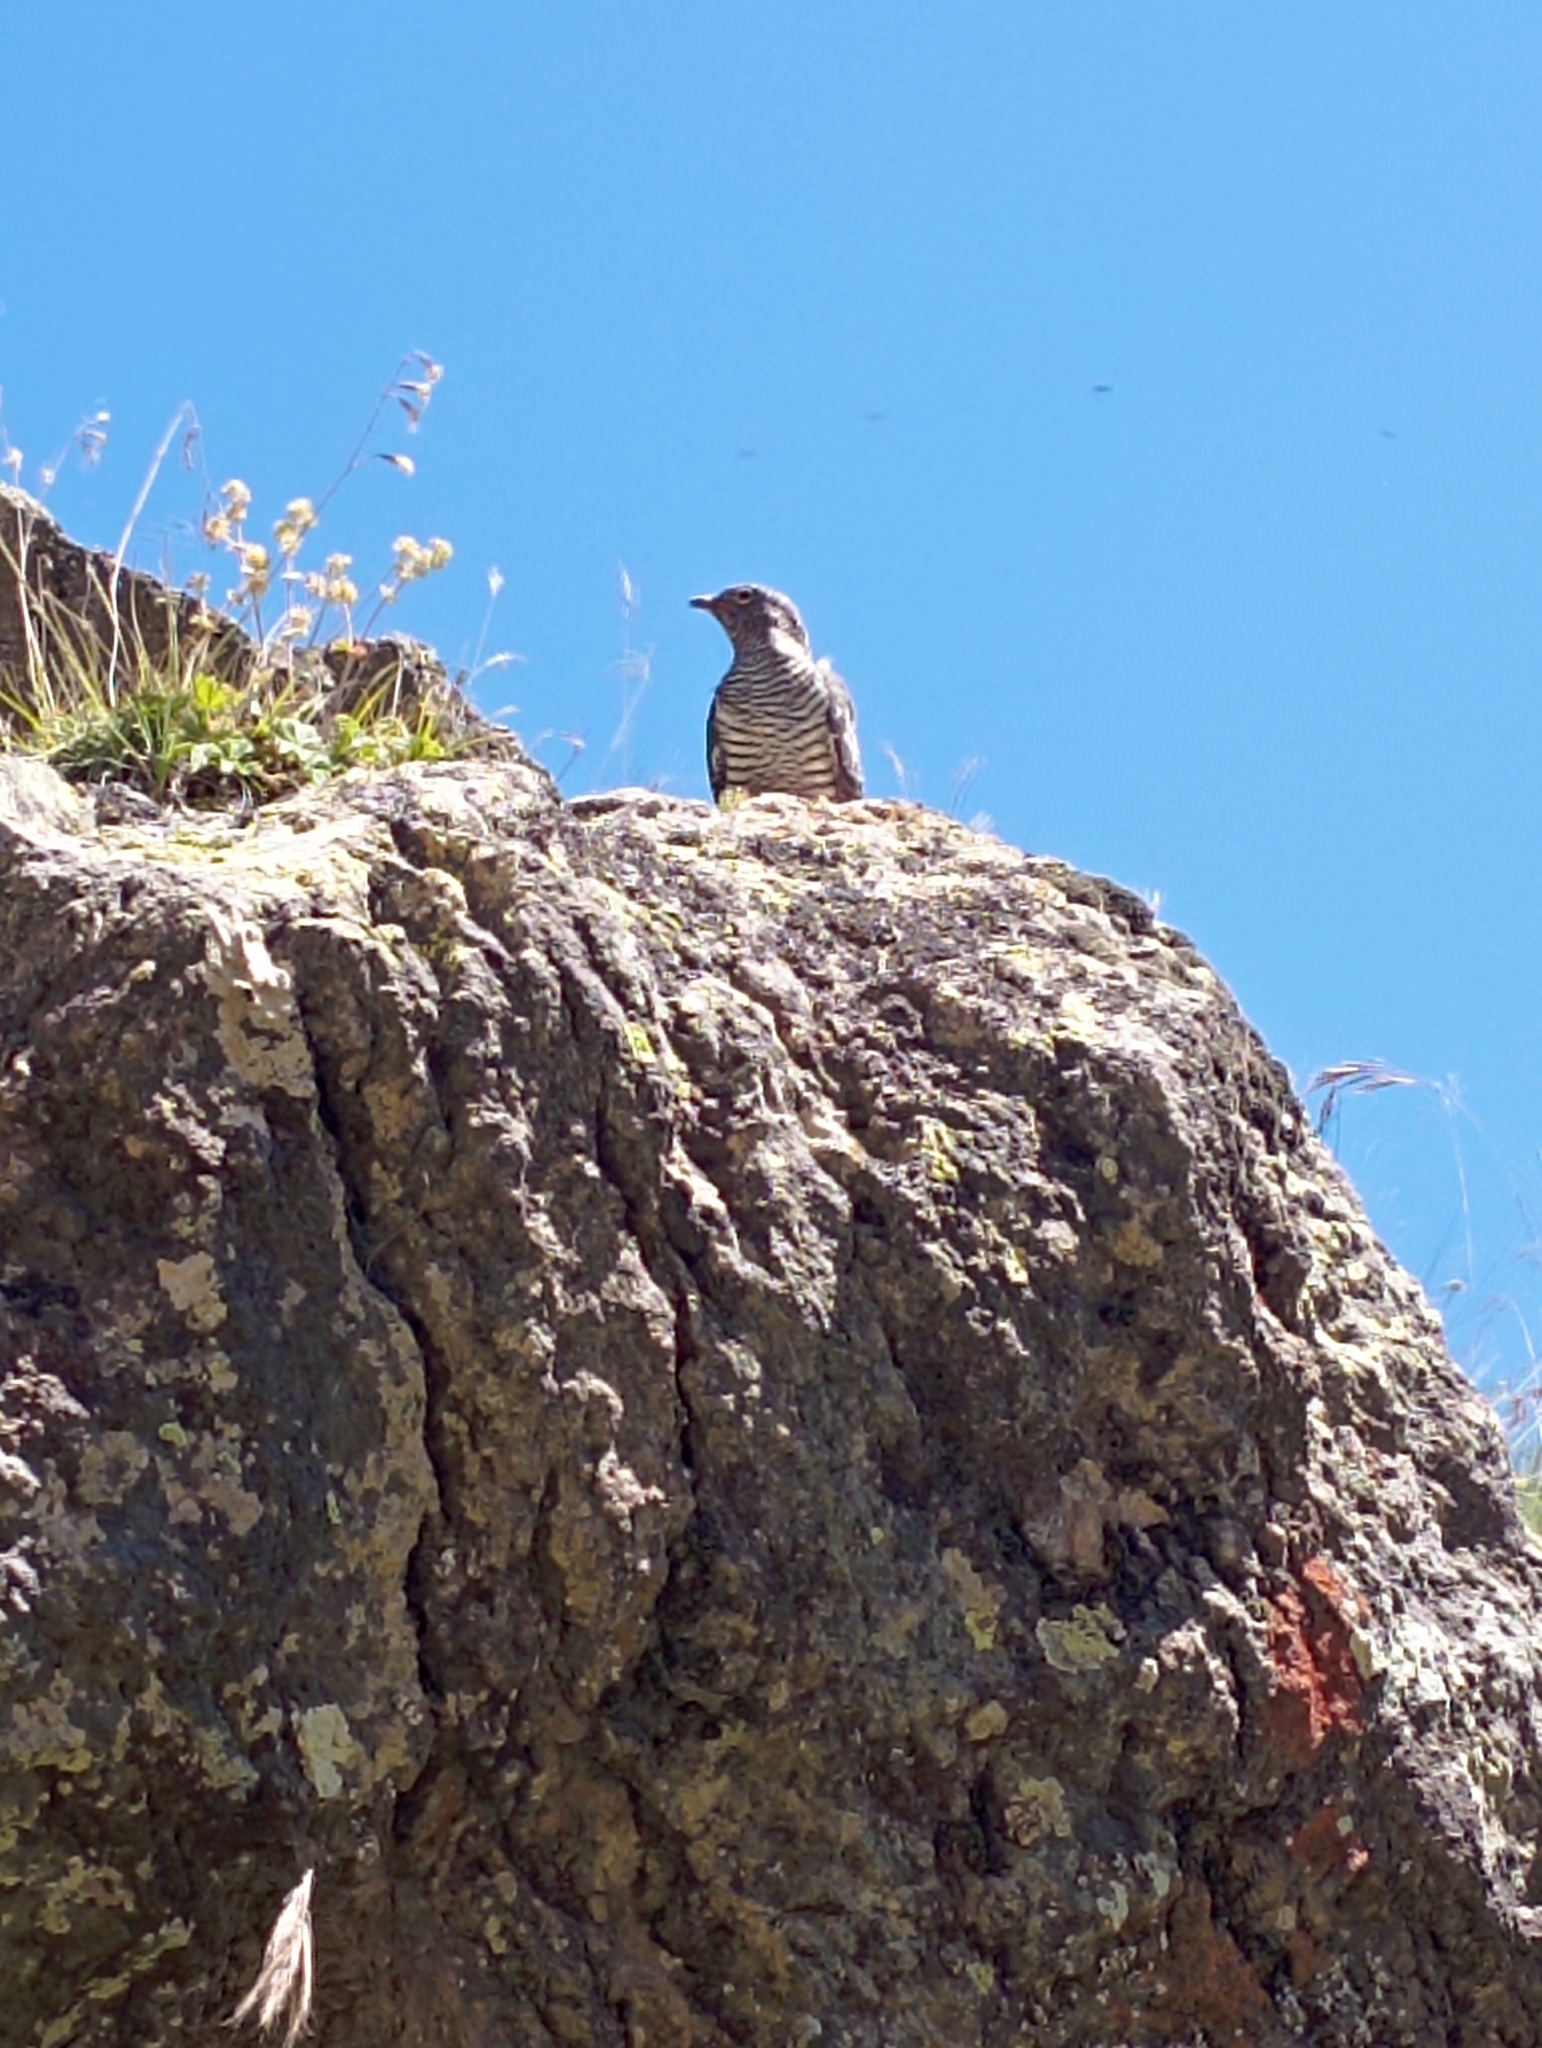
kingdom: Animalia
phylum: Chordata
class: Aves
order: Cuculiformes
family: Cuculidae
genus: Cuculus
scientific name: Cuculus canorus
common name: Common cuckoo
